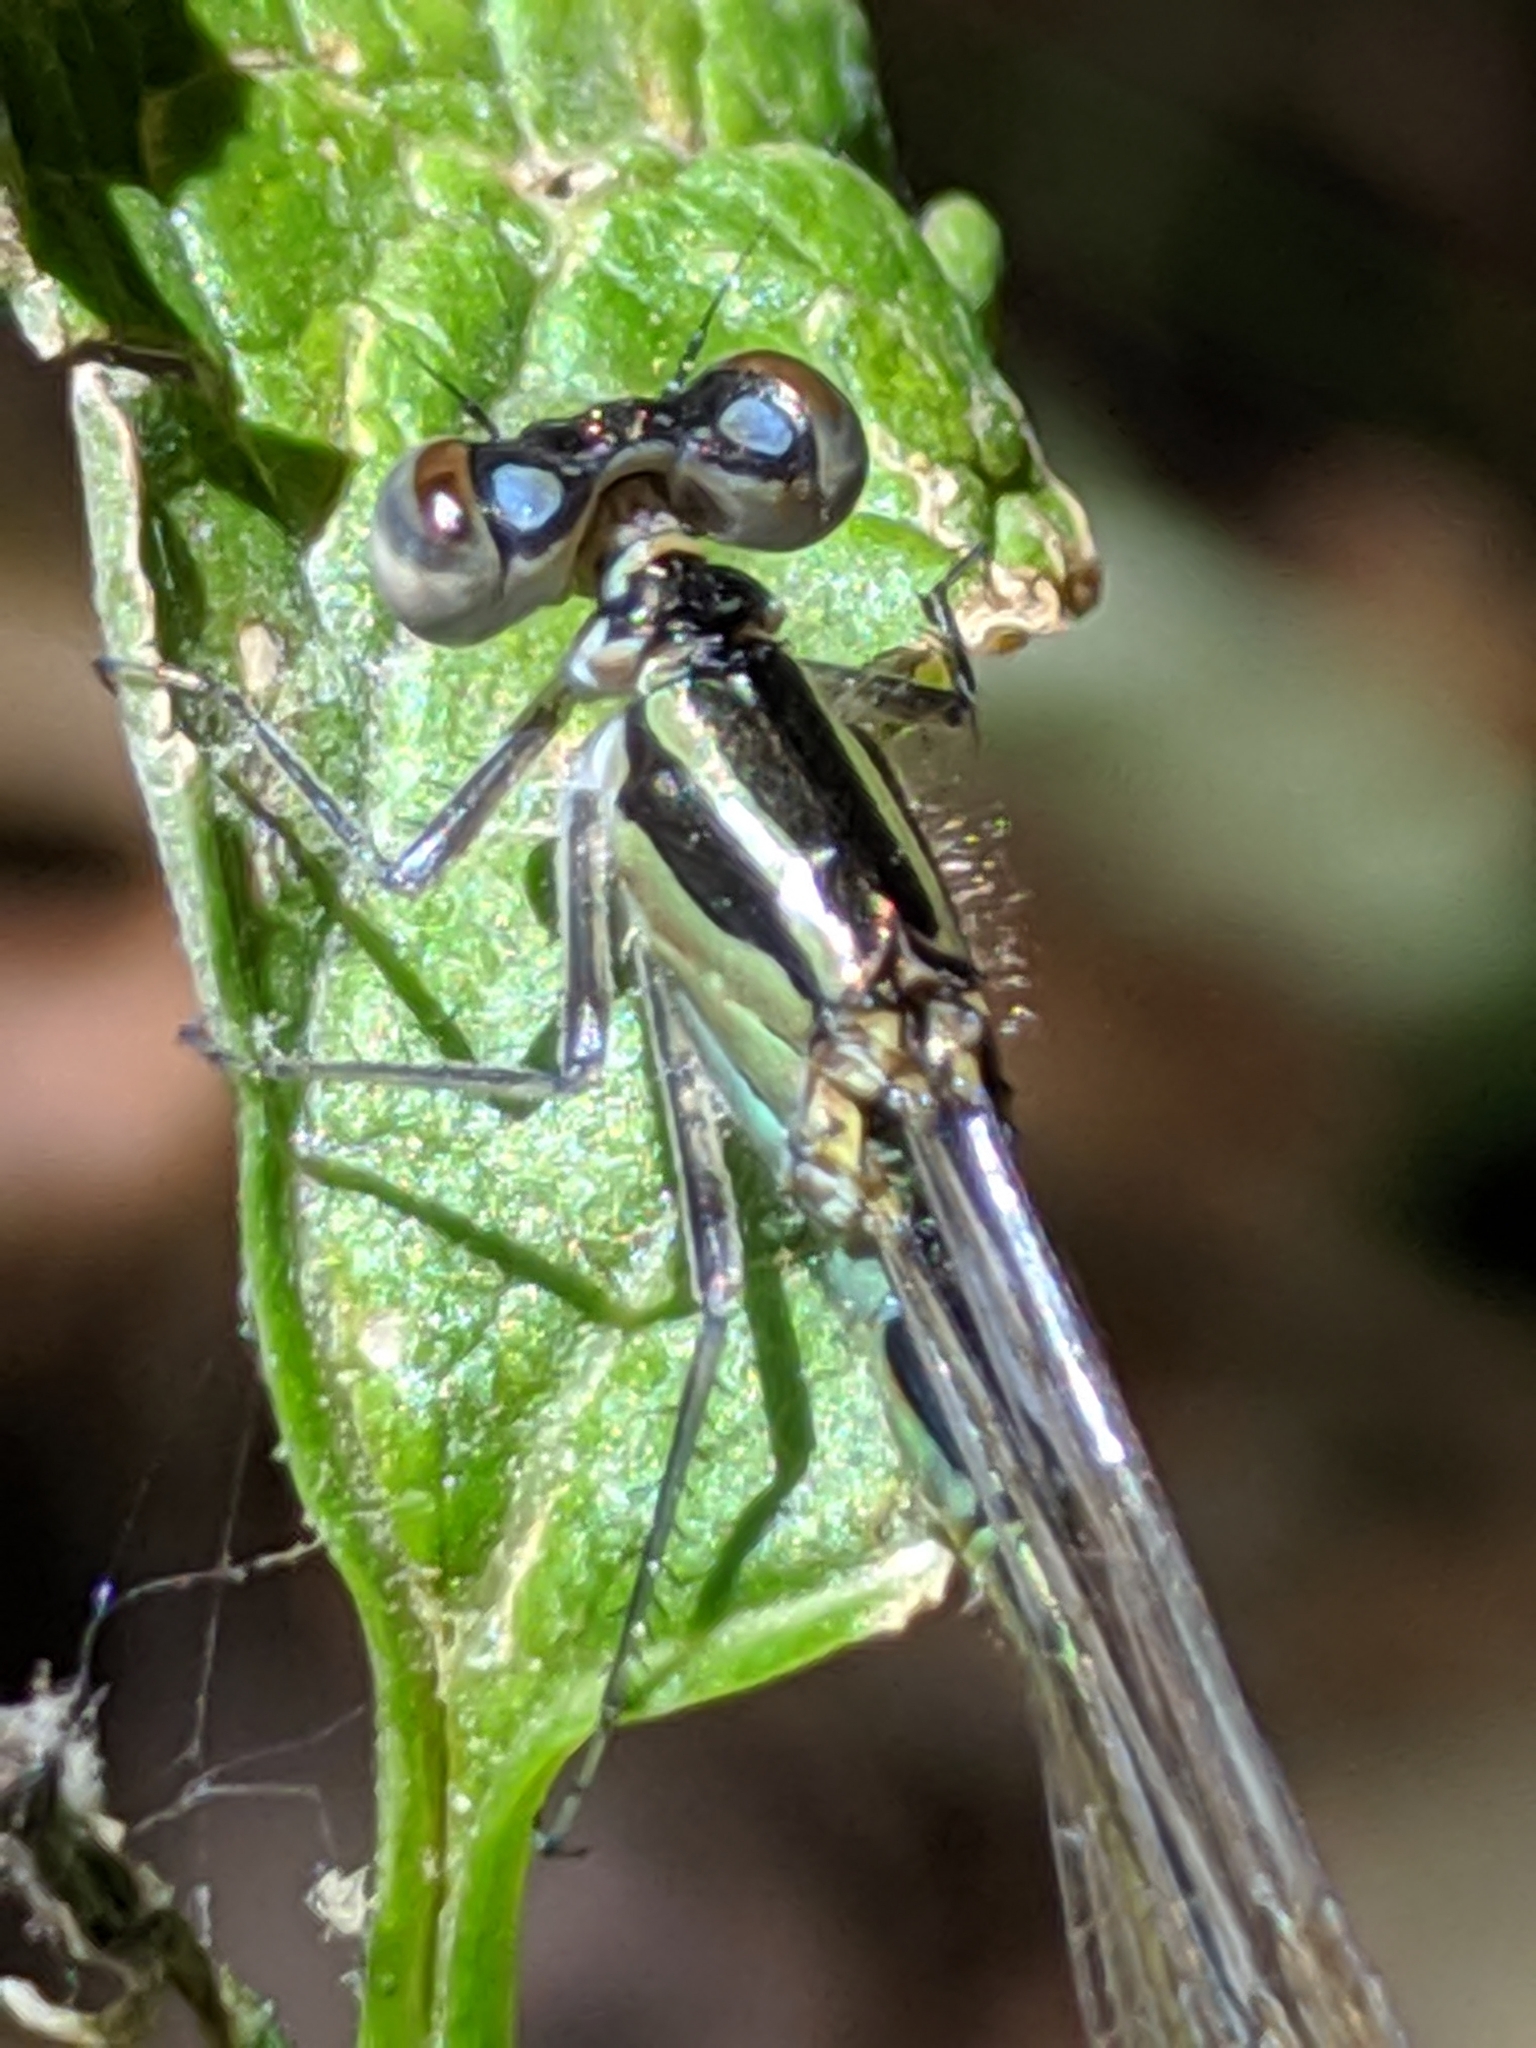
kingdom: Animalia
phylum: Arthropoda
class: Insecta
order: Odonata
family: Coenagrionidae
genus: Ischnura
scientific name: Ischnura elegans
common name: Blue-tailed damselfly
